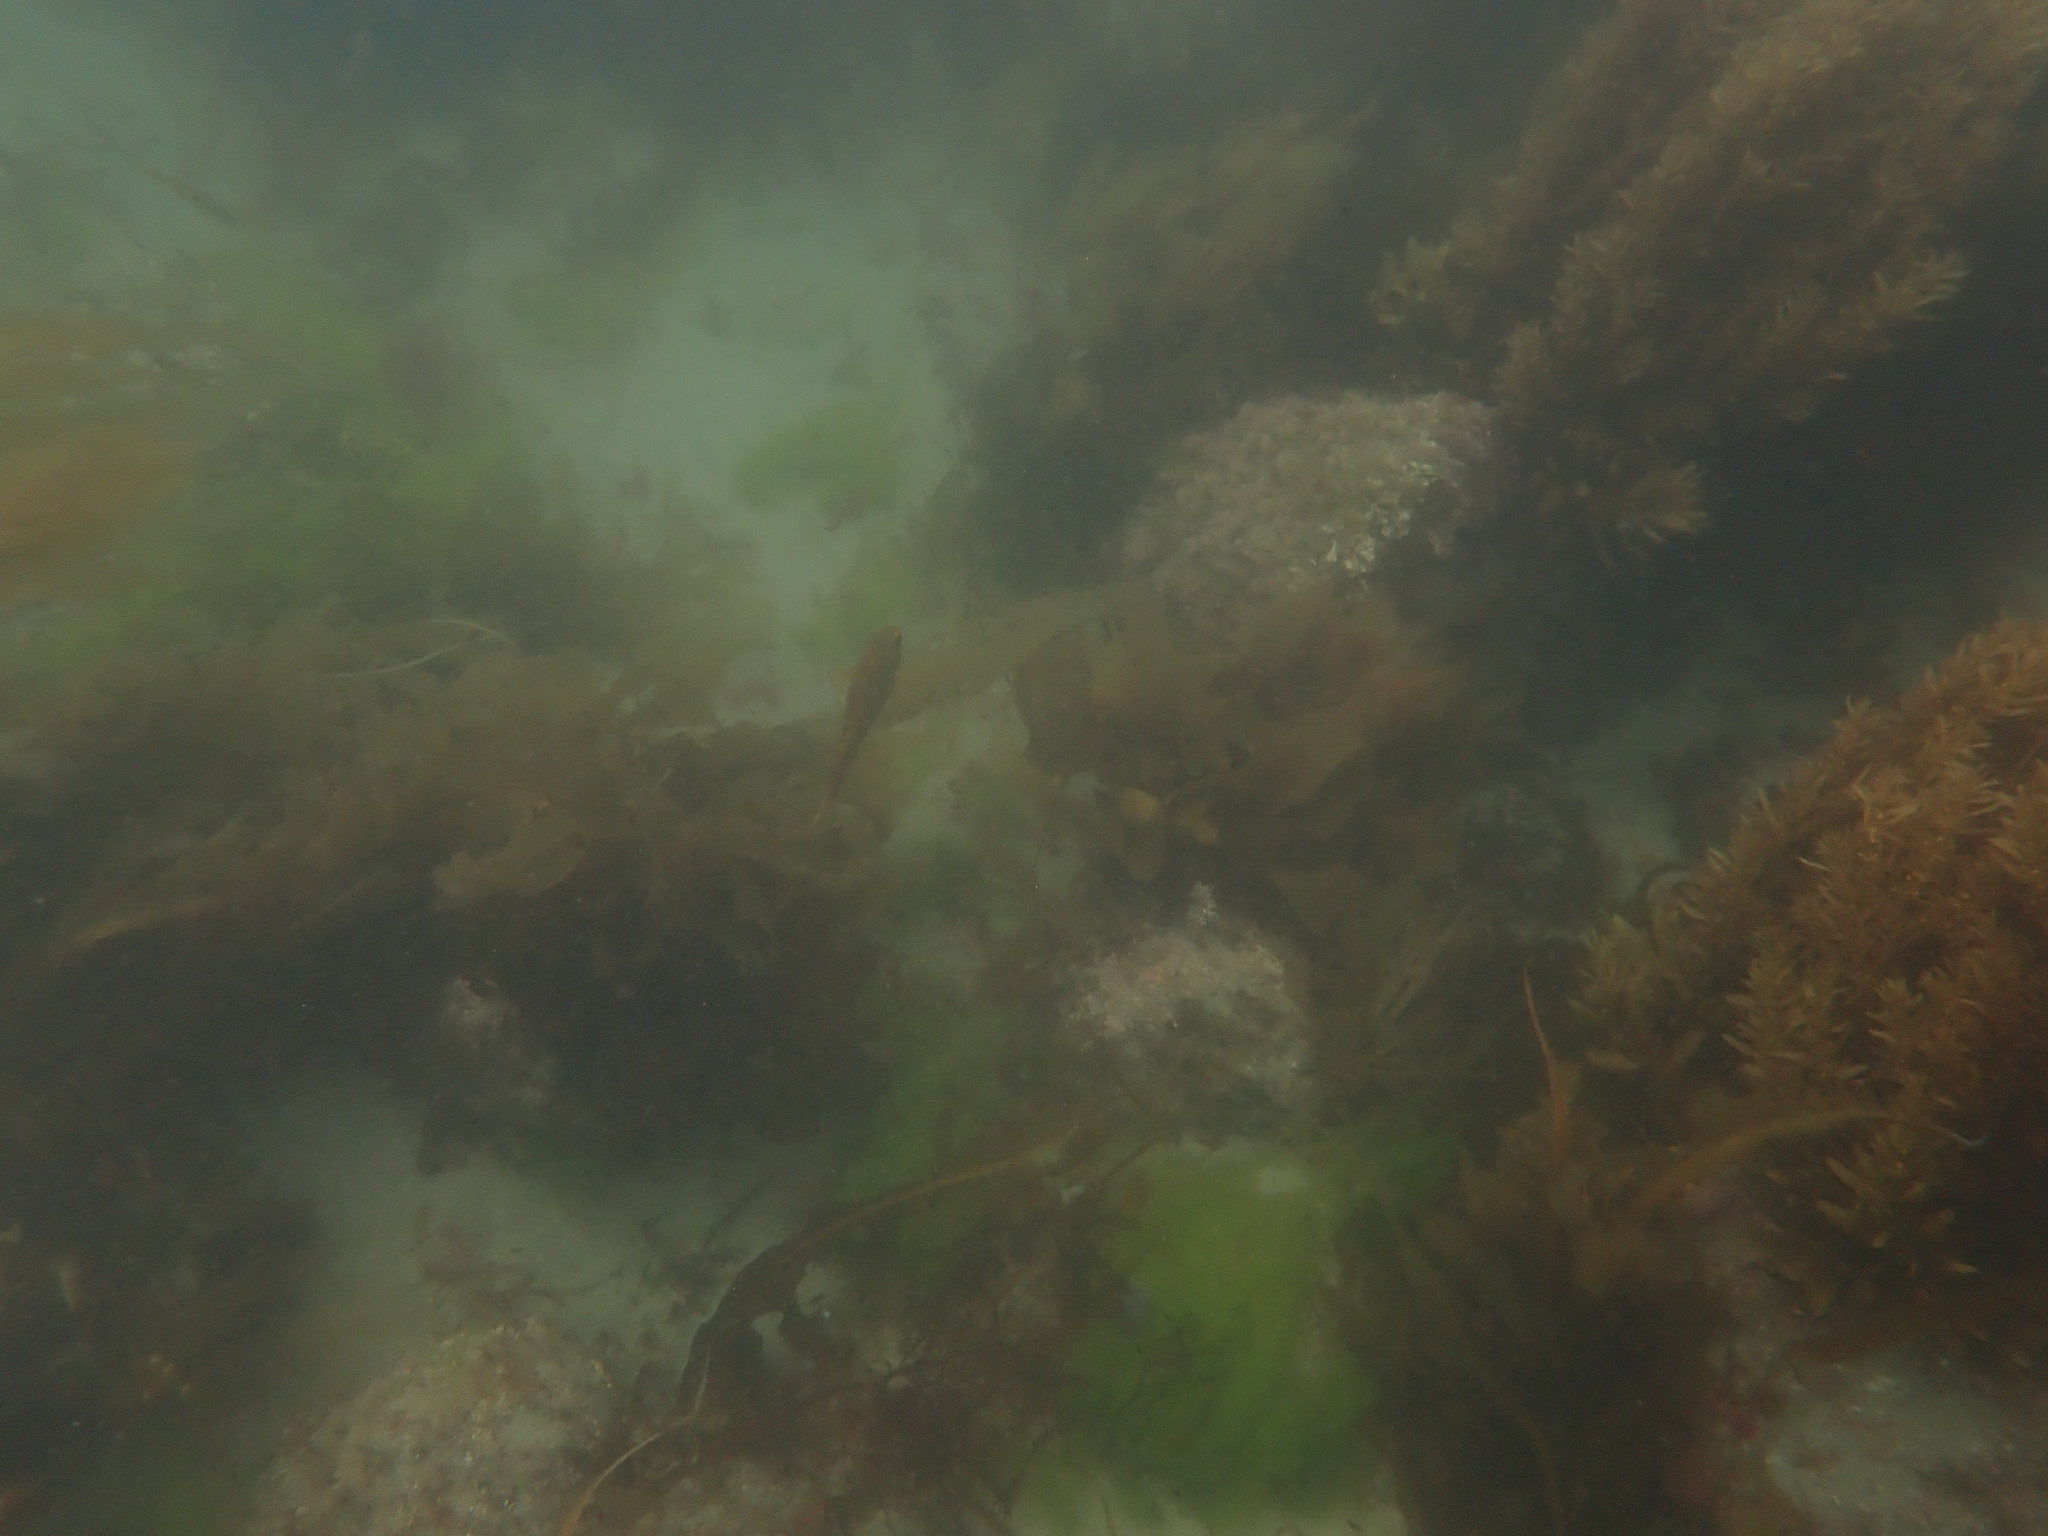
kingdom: Animalia
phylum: Chordata
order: Perciformes
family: Labridae
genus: Notolabrus
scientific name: Notolabrus fucicola
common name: Banded parrotfish
